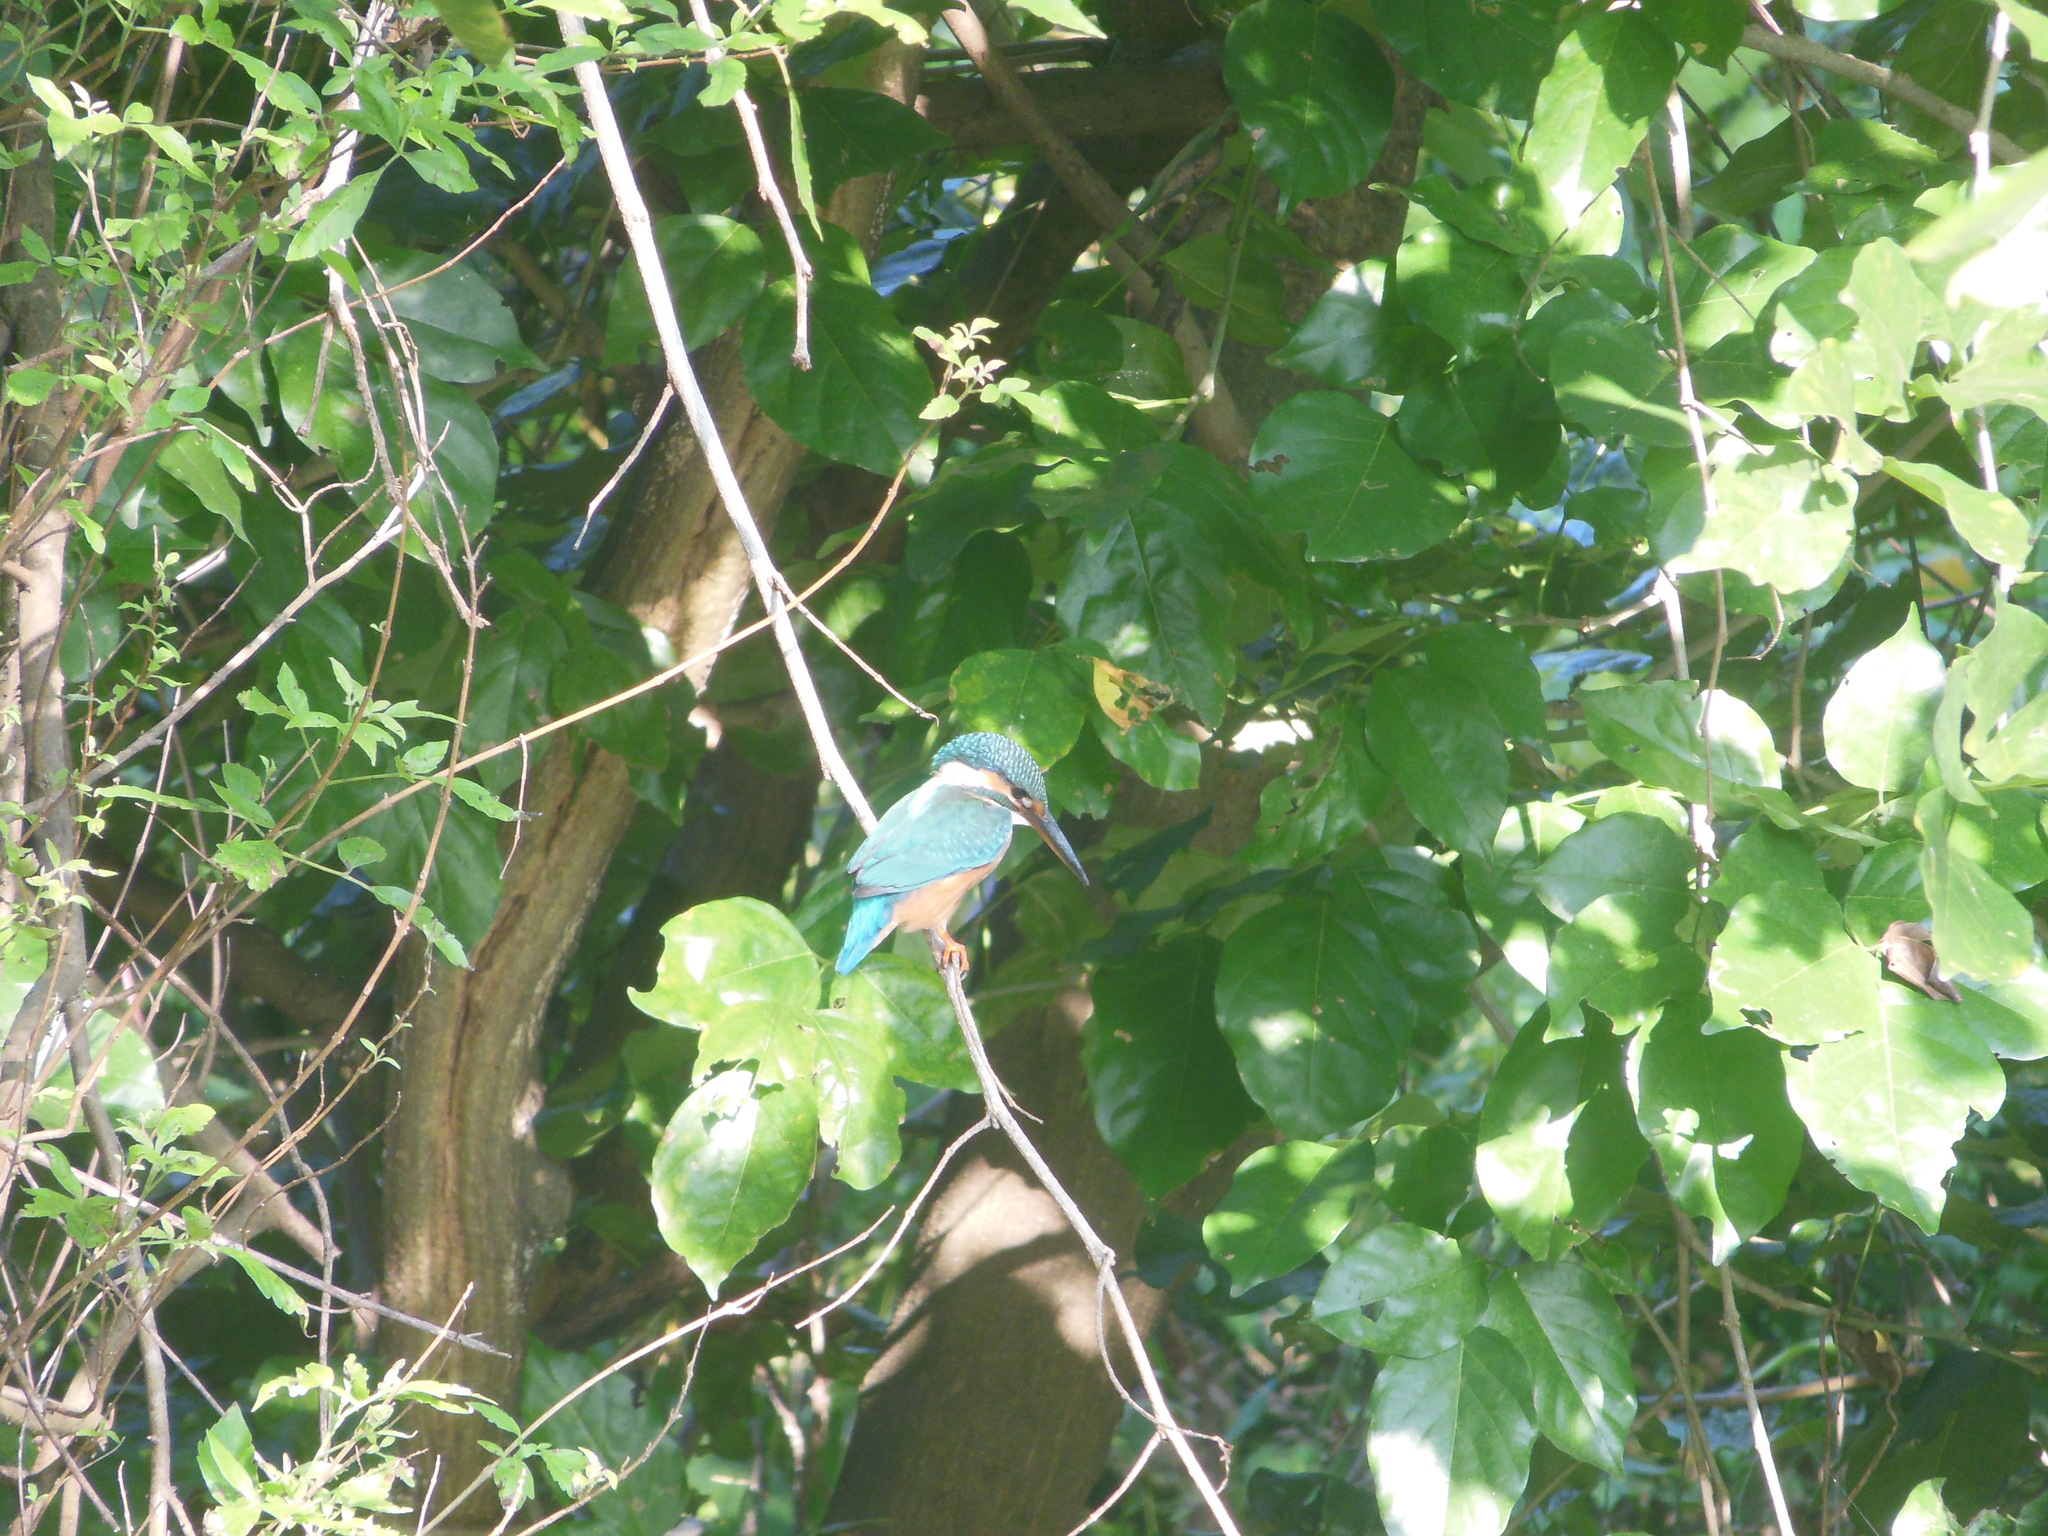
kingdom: Animalia
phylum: Chordata
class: Aves
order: Coraciiformes
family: Alcedinidae
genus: Alcedo
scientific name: Alcedo atthis
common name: Common kingfisher
